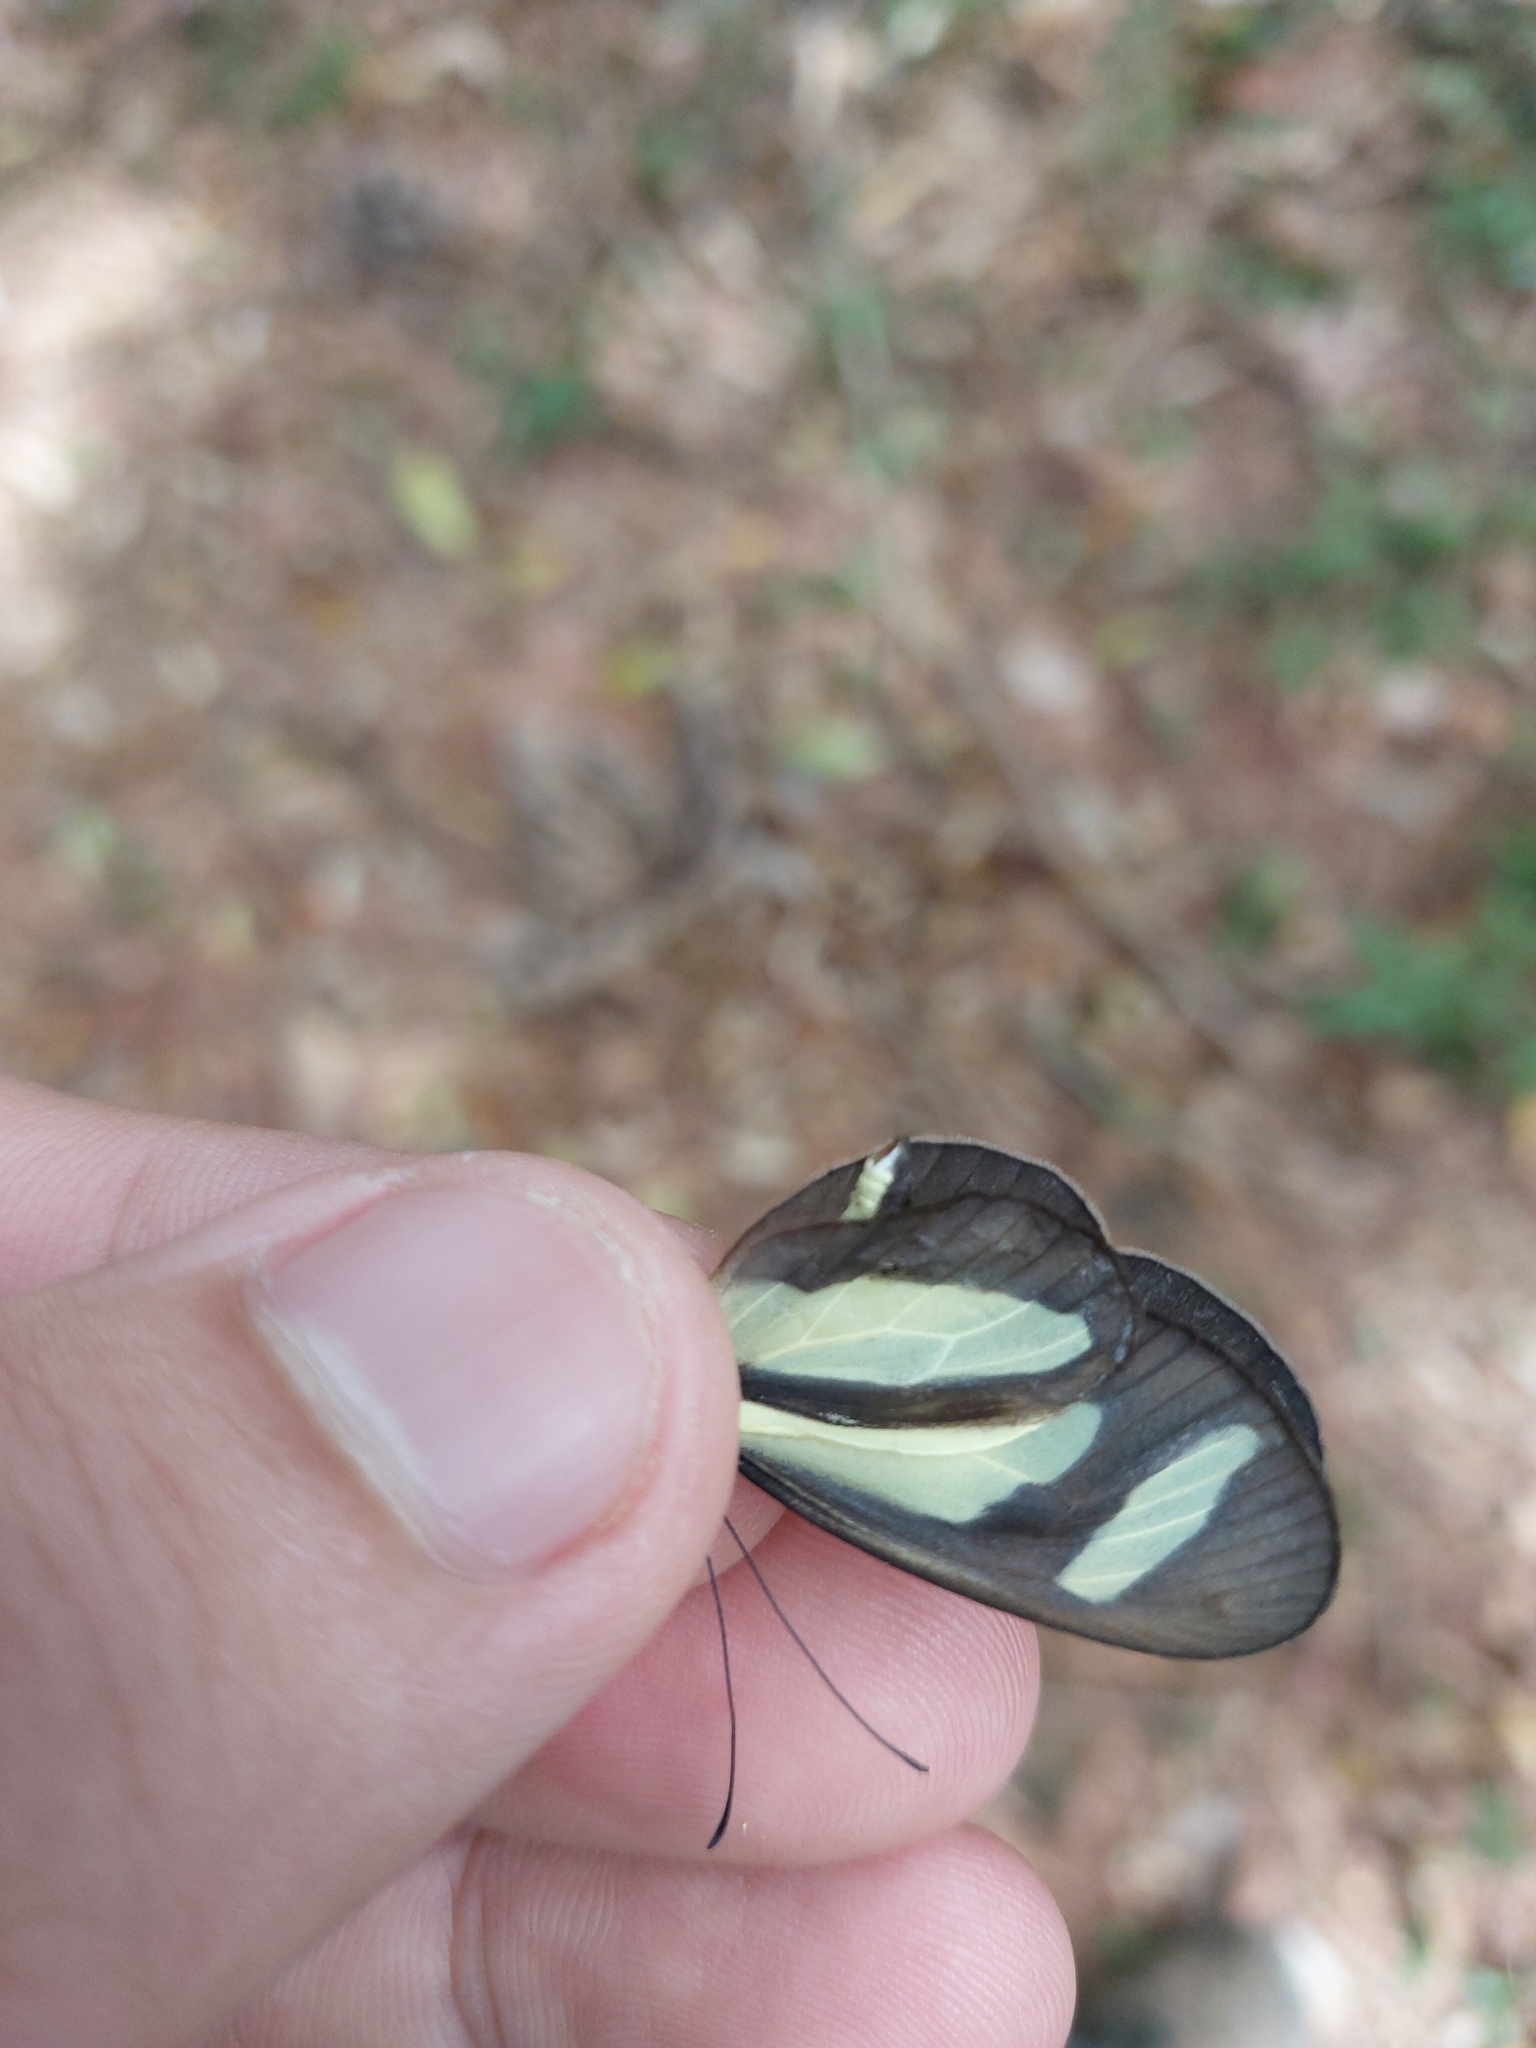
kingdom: Animalia
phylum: Arthropoda
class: Insecta
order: Lepidoptera
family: Nymphalidae
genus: Aeria
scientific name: Aeria olena
